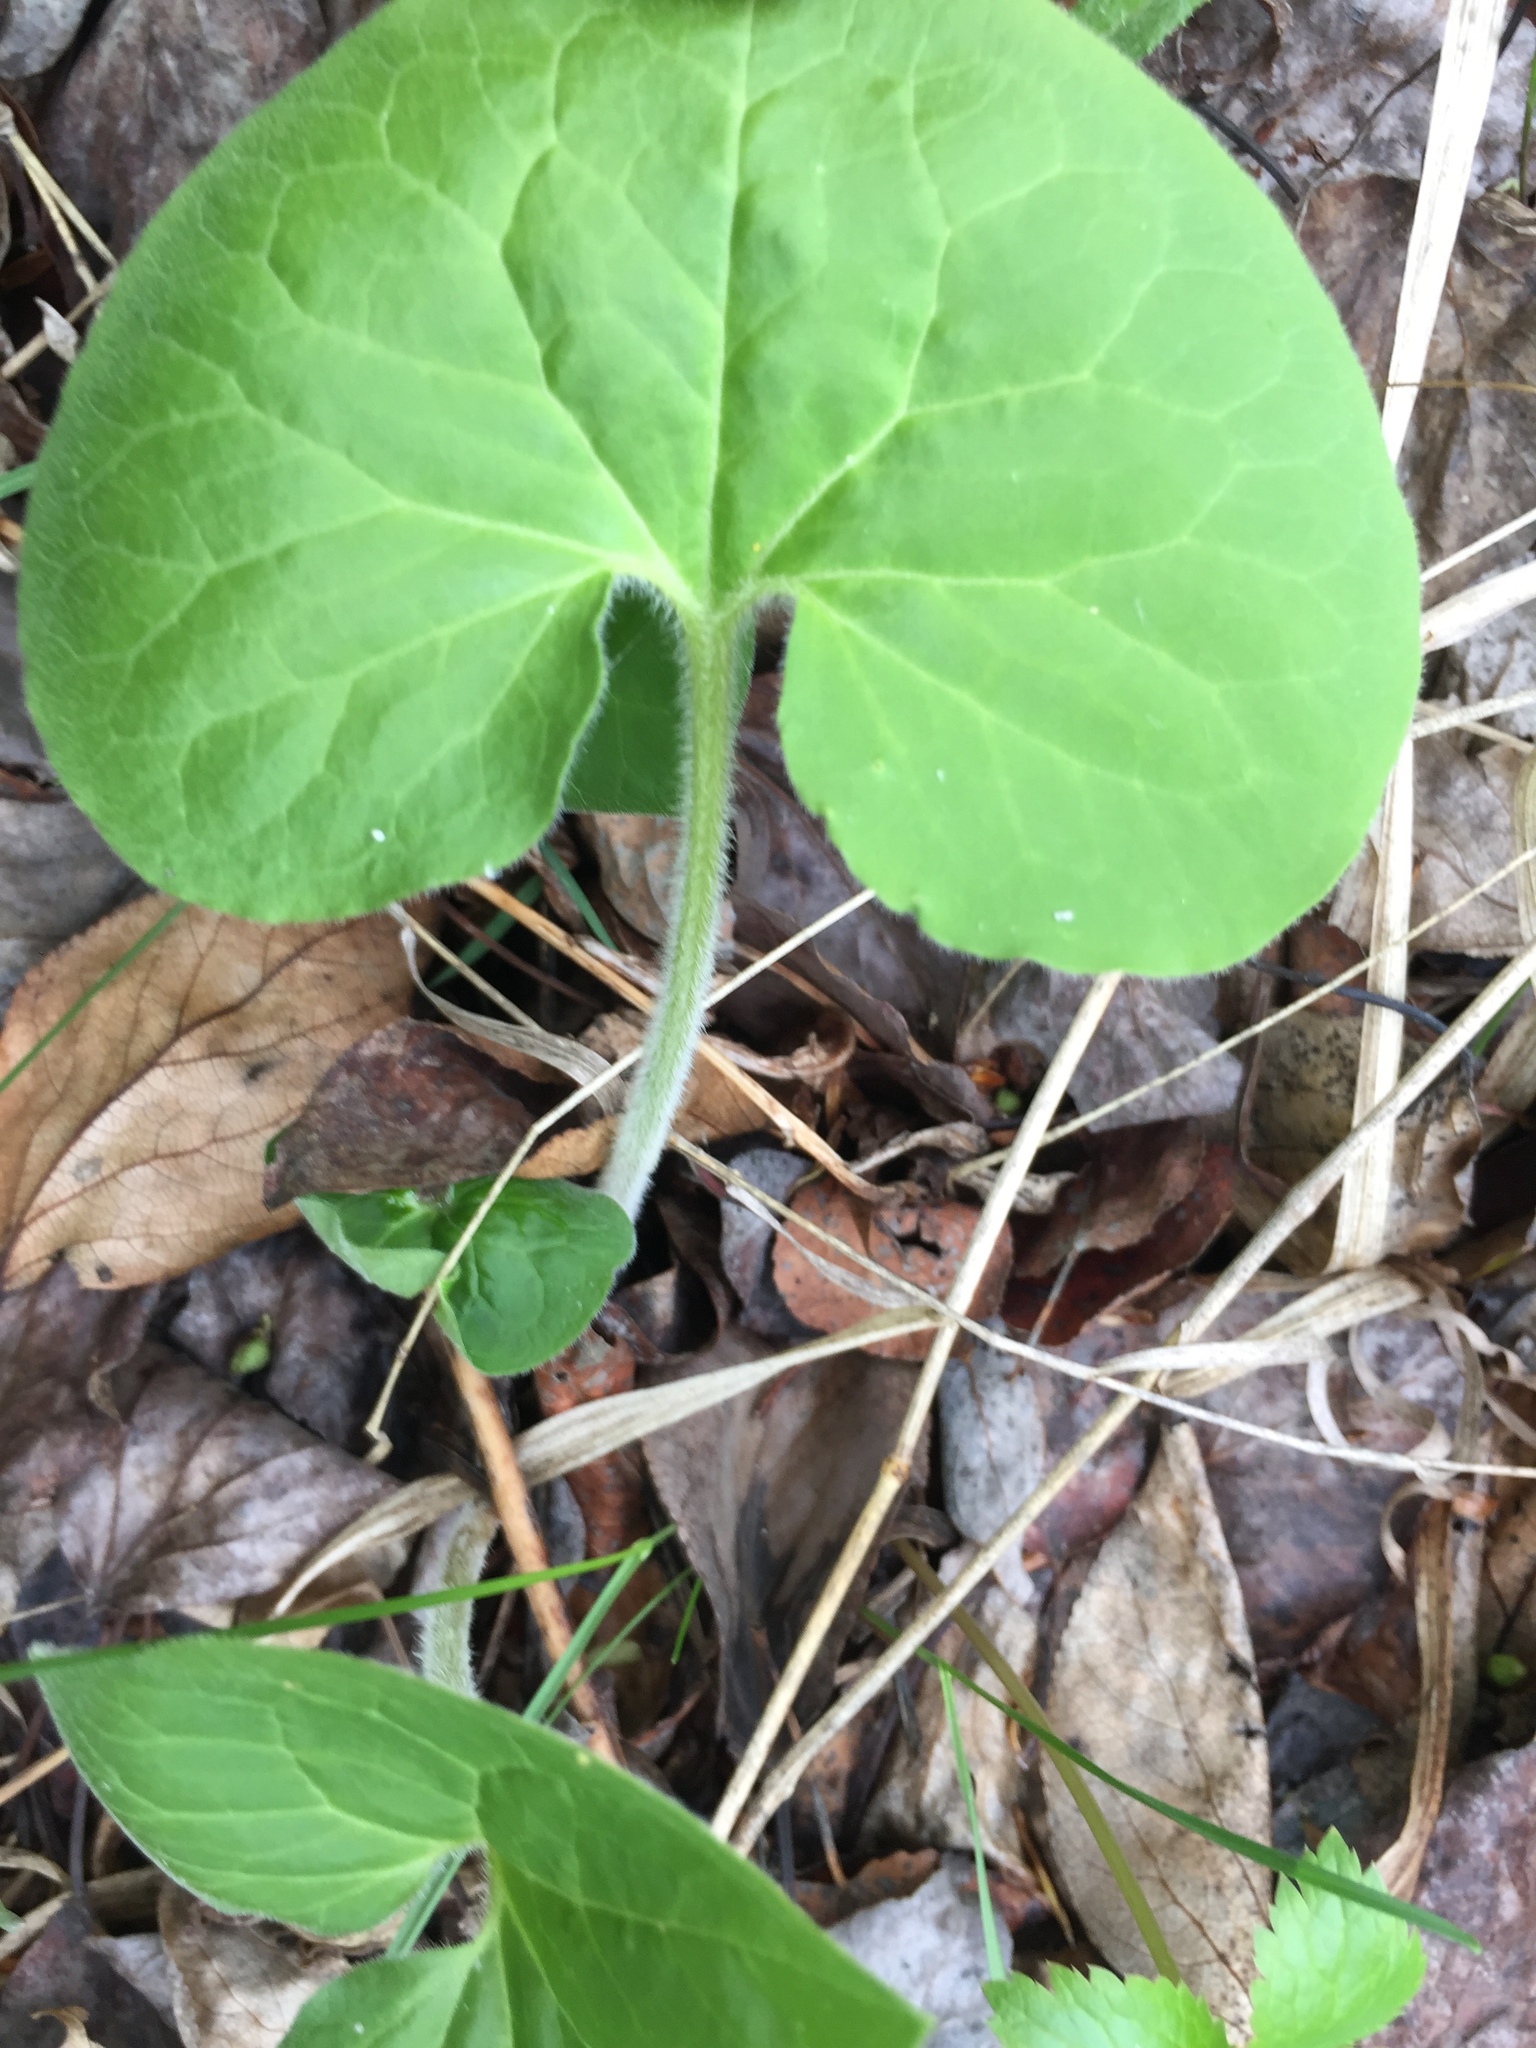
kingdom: Plantae
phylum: Tracheophyta
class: Magnoliopsida
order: Piperales
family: Aristolochiaceae
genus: Asarum
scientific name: Asarum canadense
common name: Wild ginger
